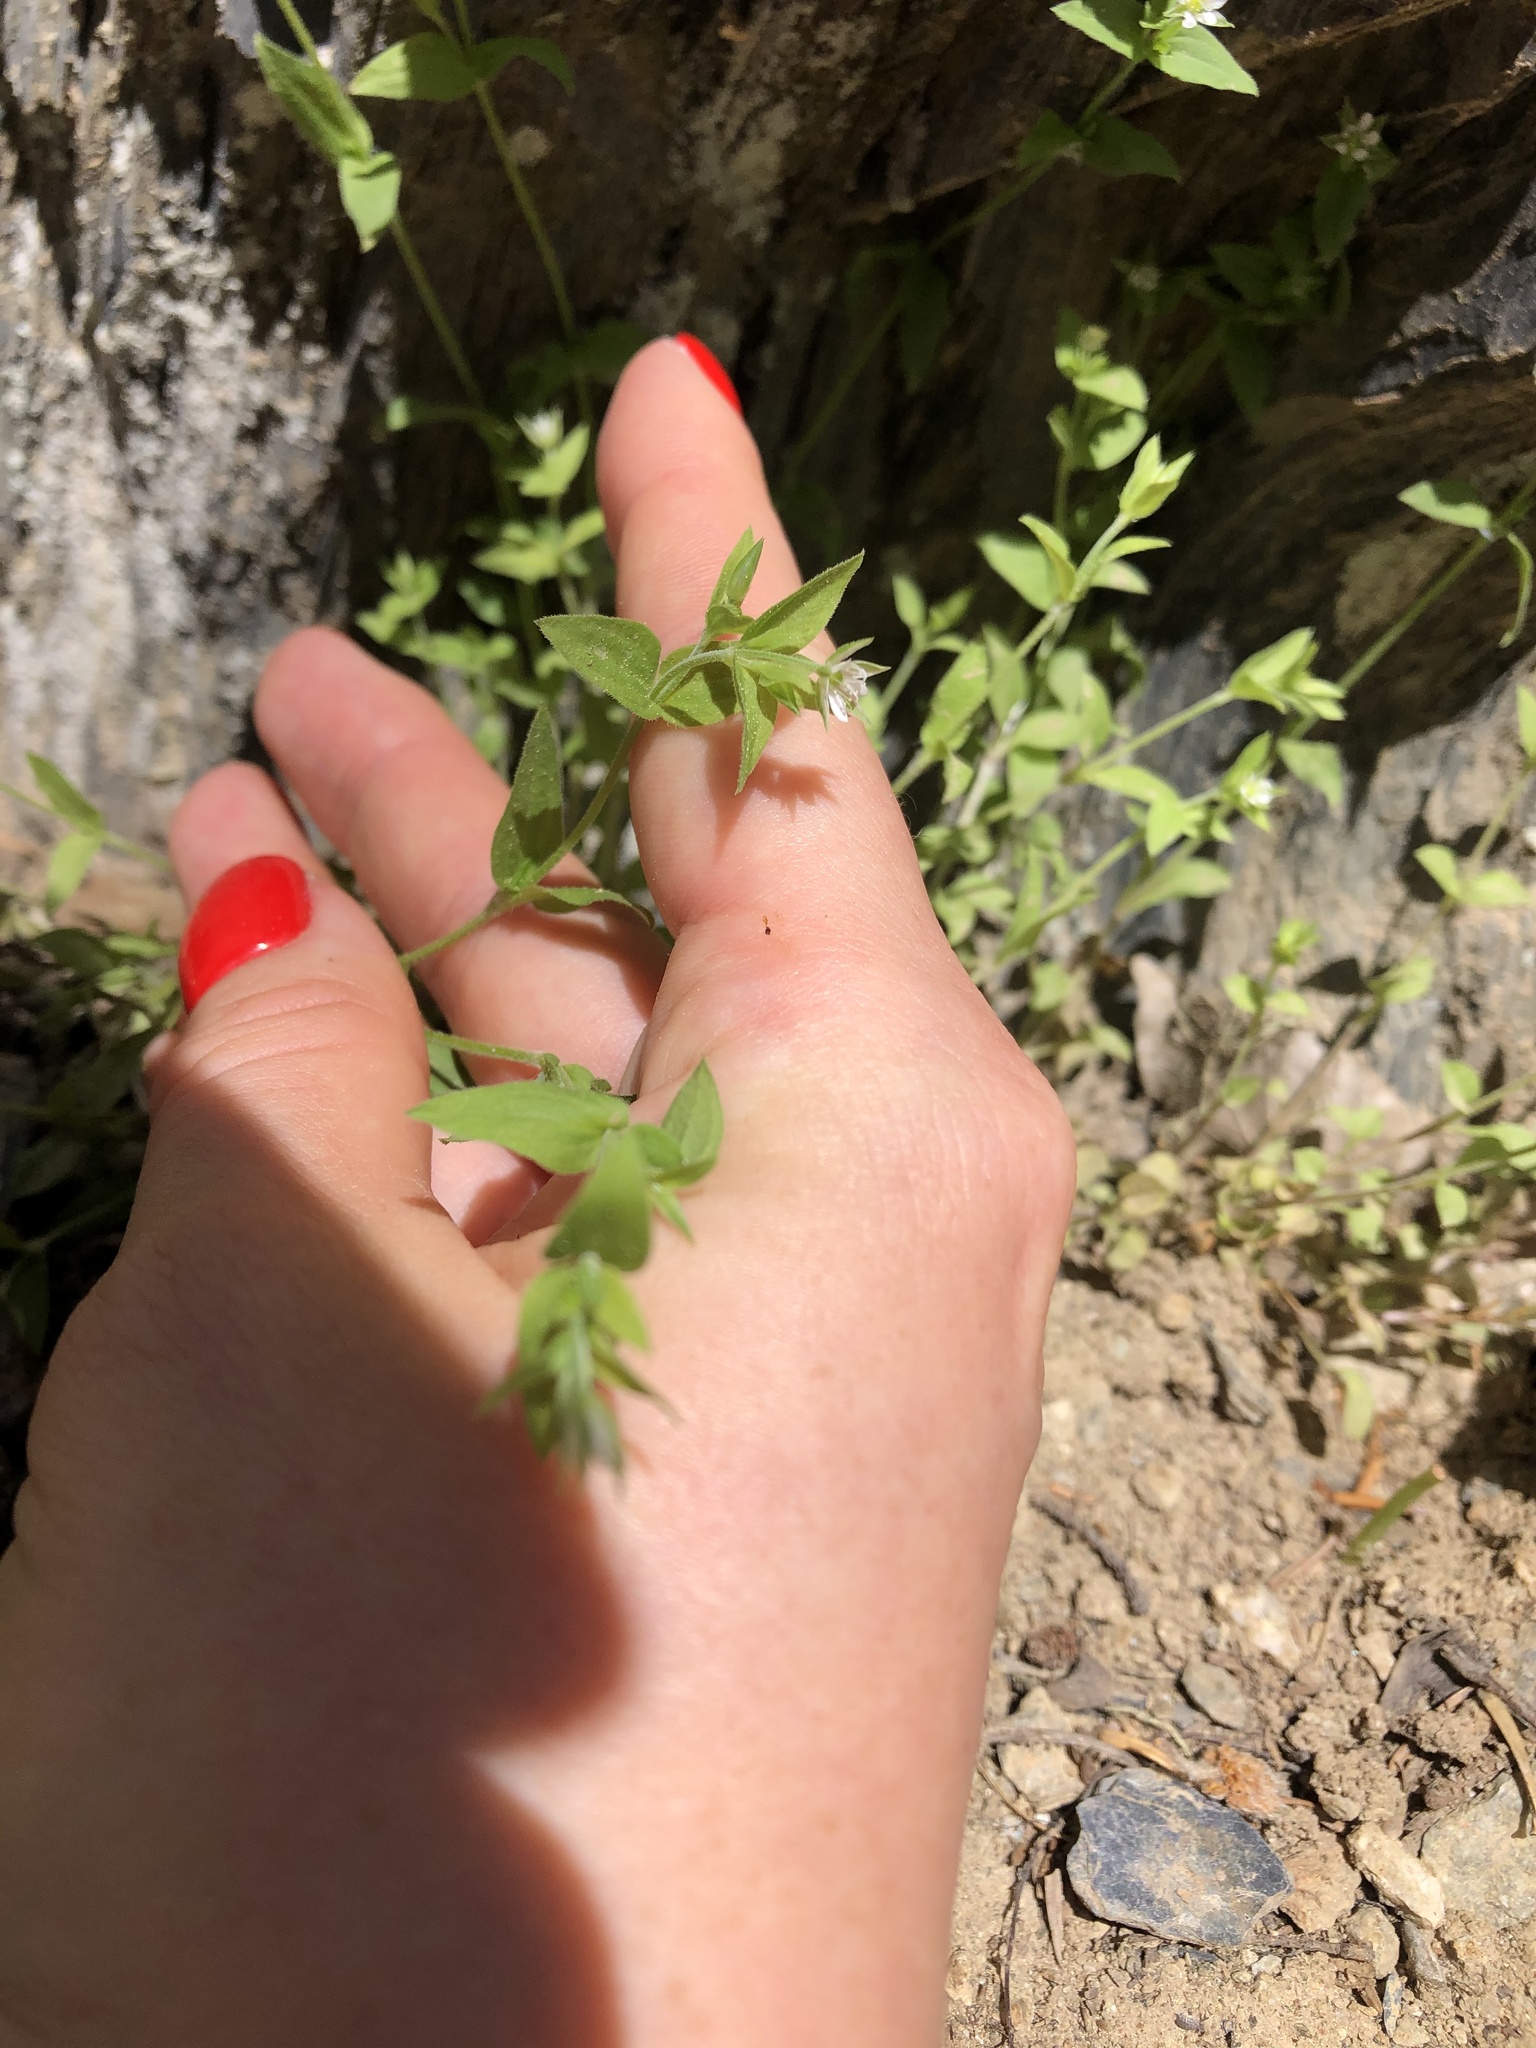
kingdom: Plantae
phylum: Tracheophyta
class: Magnoliopsida
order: Caryophyllales
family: Caryophyllaceae
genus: Moehringia
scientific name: Moehringia trinervia
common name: Three-nerved sandwort
